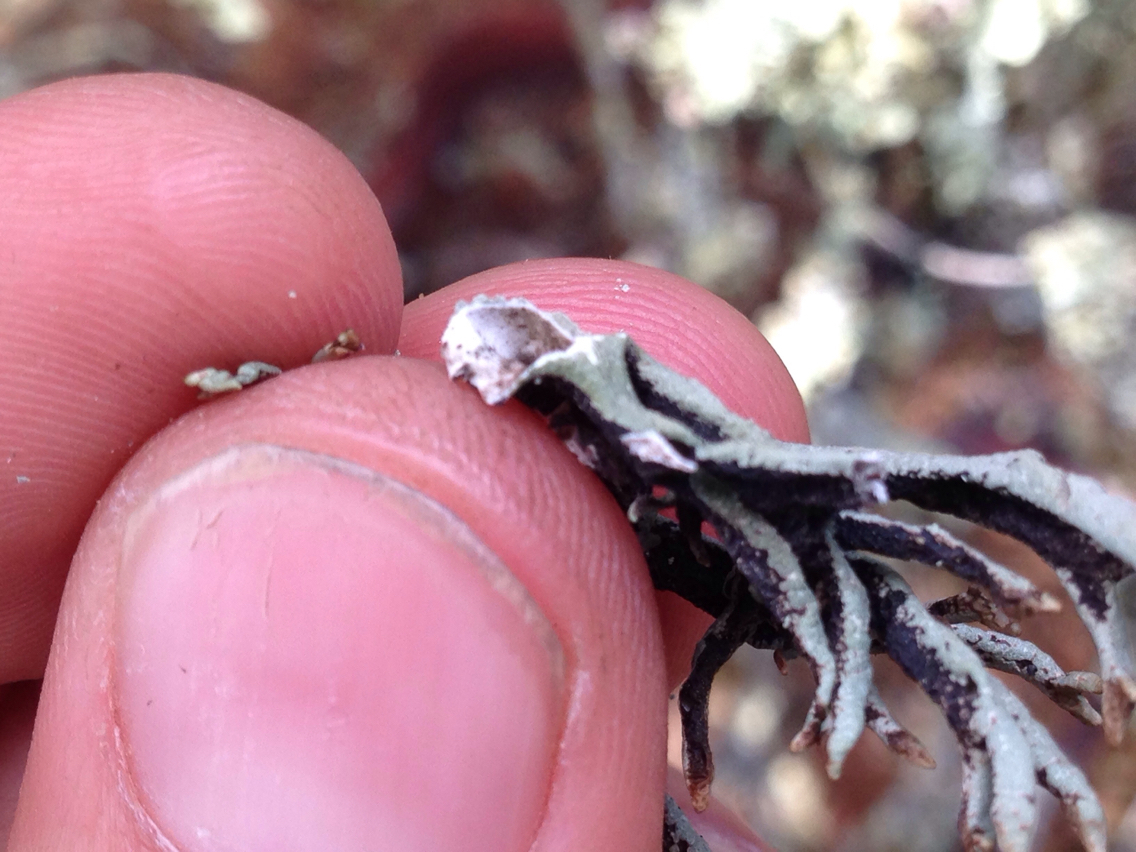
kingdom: Fungi
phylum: Ascomycota
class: Lecanoromycetes
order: Lecanorales
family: Parmeliaceae
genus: Hypogymnia
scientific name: Hypogymnia imshaugii
